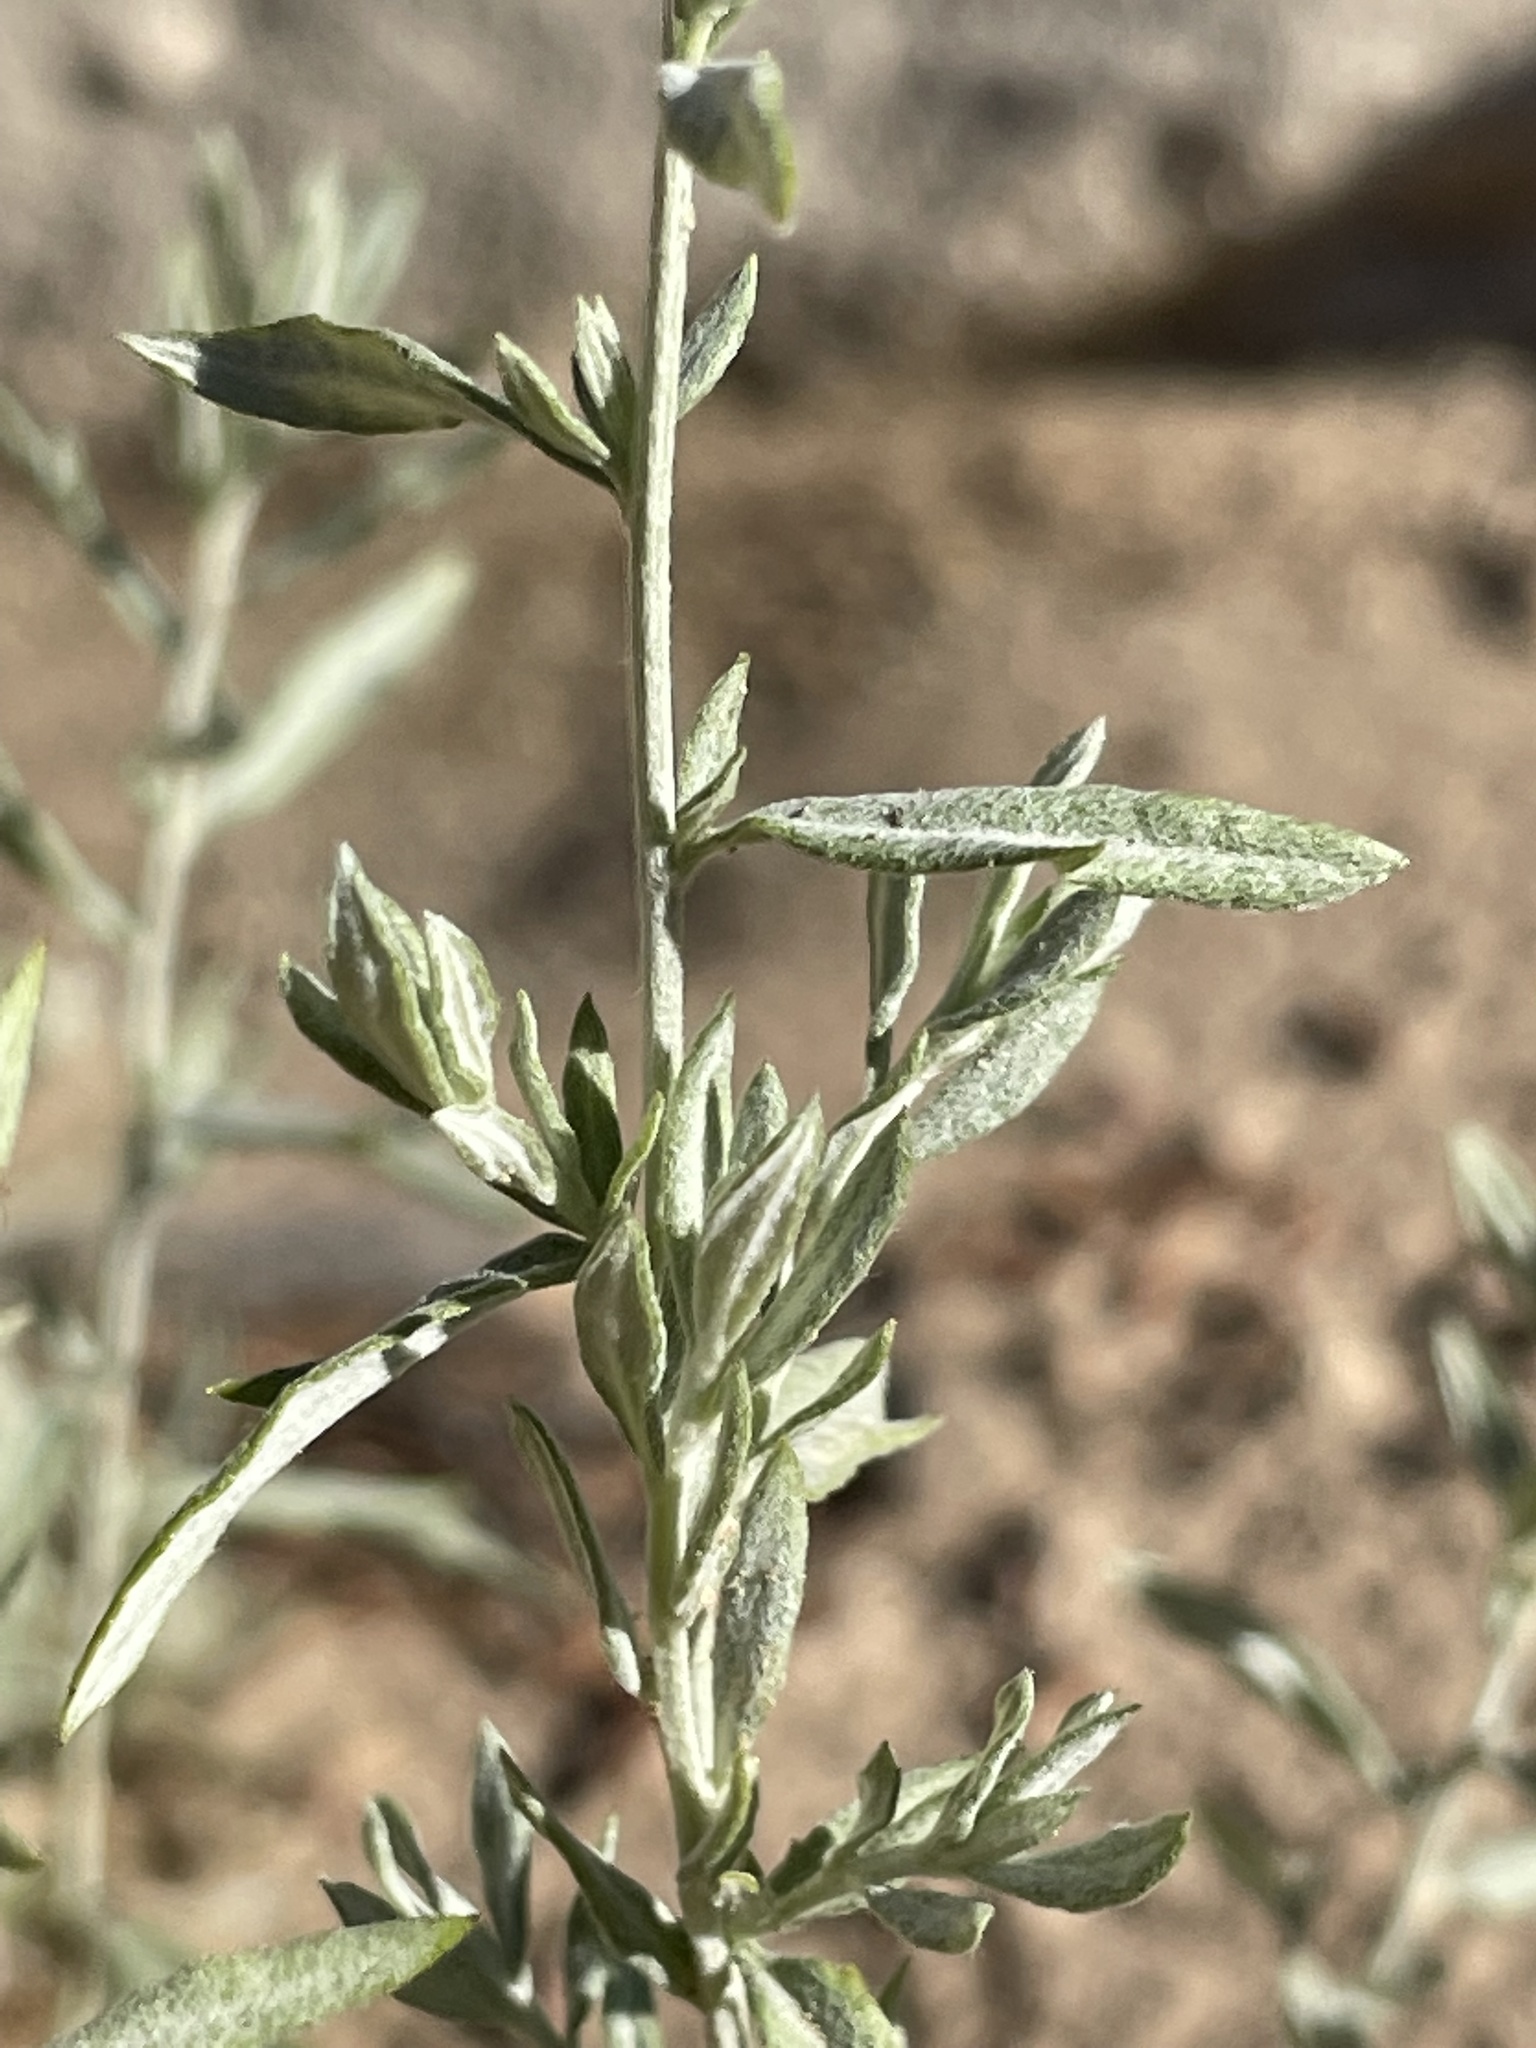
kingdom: Plantae
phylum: Tracheophyta
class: Magnoliopsida
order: Asterales
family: Asteraceae
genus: Artemisia
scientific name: Artemisia ludoviciana
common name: Western mugwort
